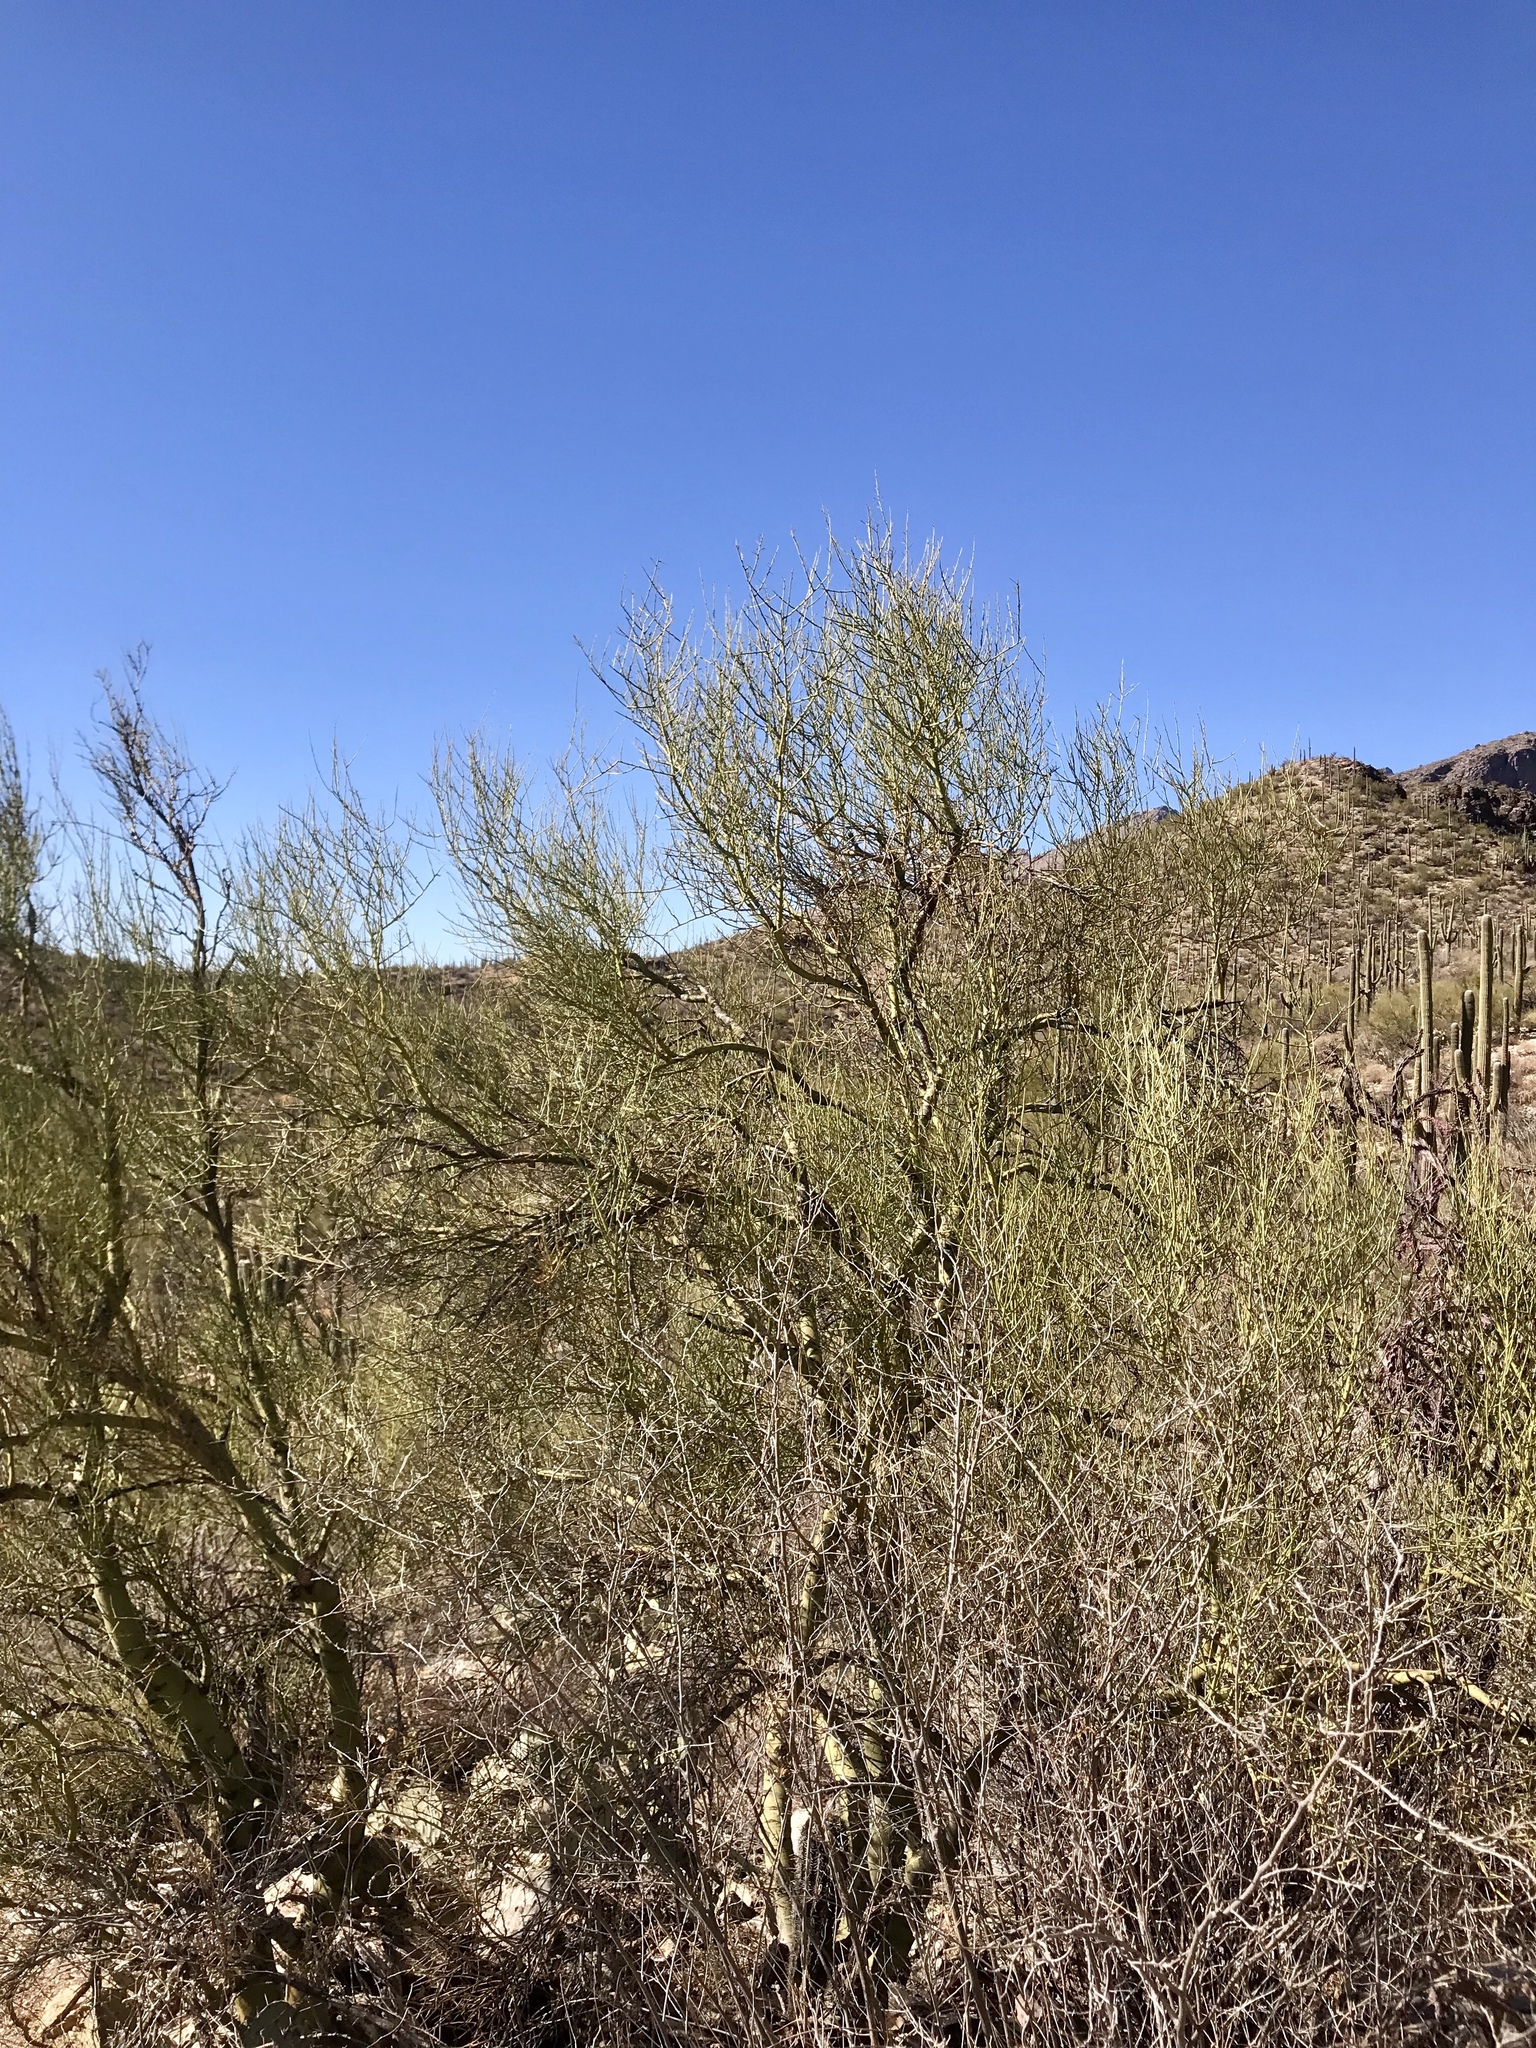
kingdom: Plantae
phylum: Tracheophyta
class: Magnoliopsida
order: Fabales
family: Fabaceae
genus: Parkinsonia
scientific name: Parkinsonia microphylla
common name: Yellow paloverde
